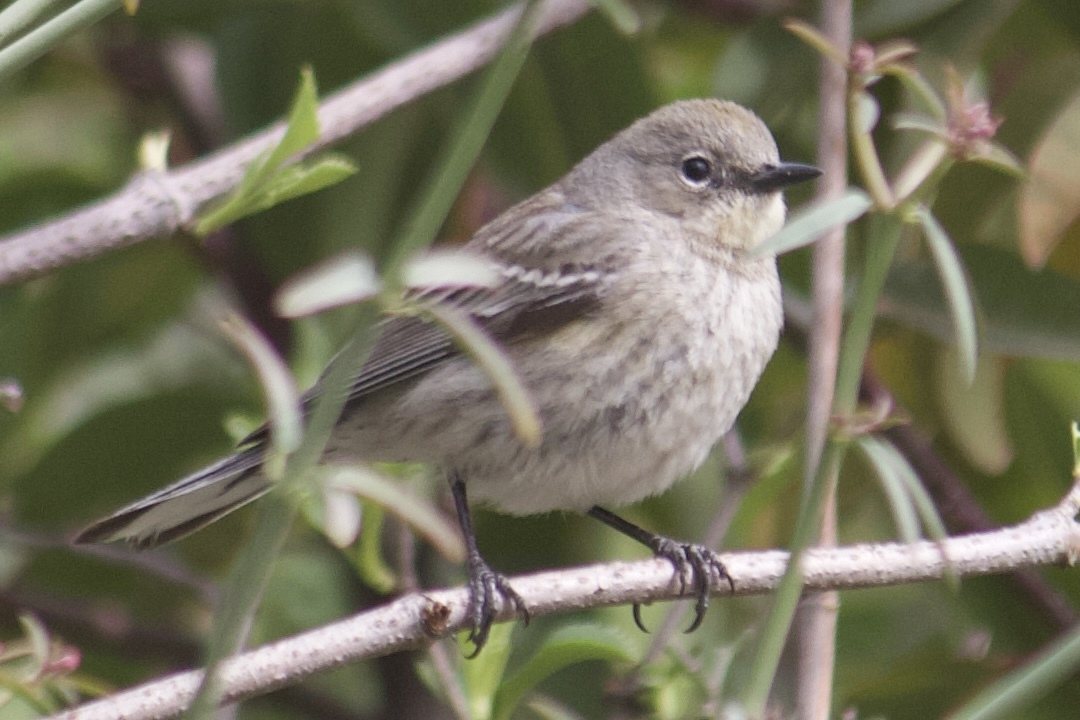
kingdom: Animalia
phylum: Chordata
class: Aves
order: Passeriformes
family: Parulidae
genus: Setophaga
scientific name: Setophaga coronata
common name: Myrtle warbler
